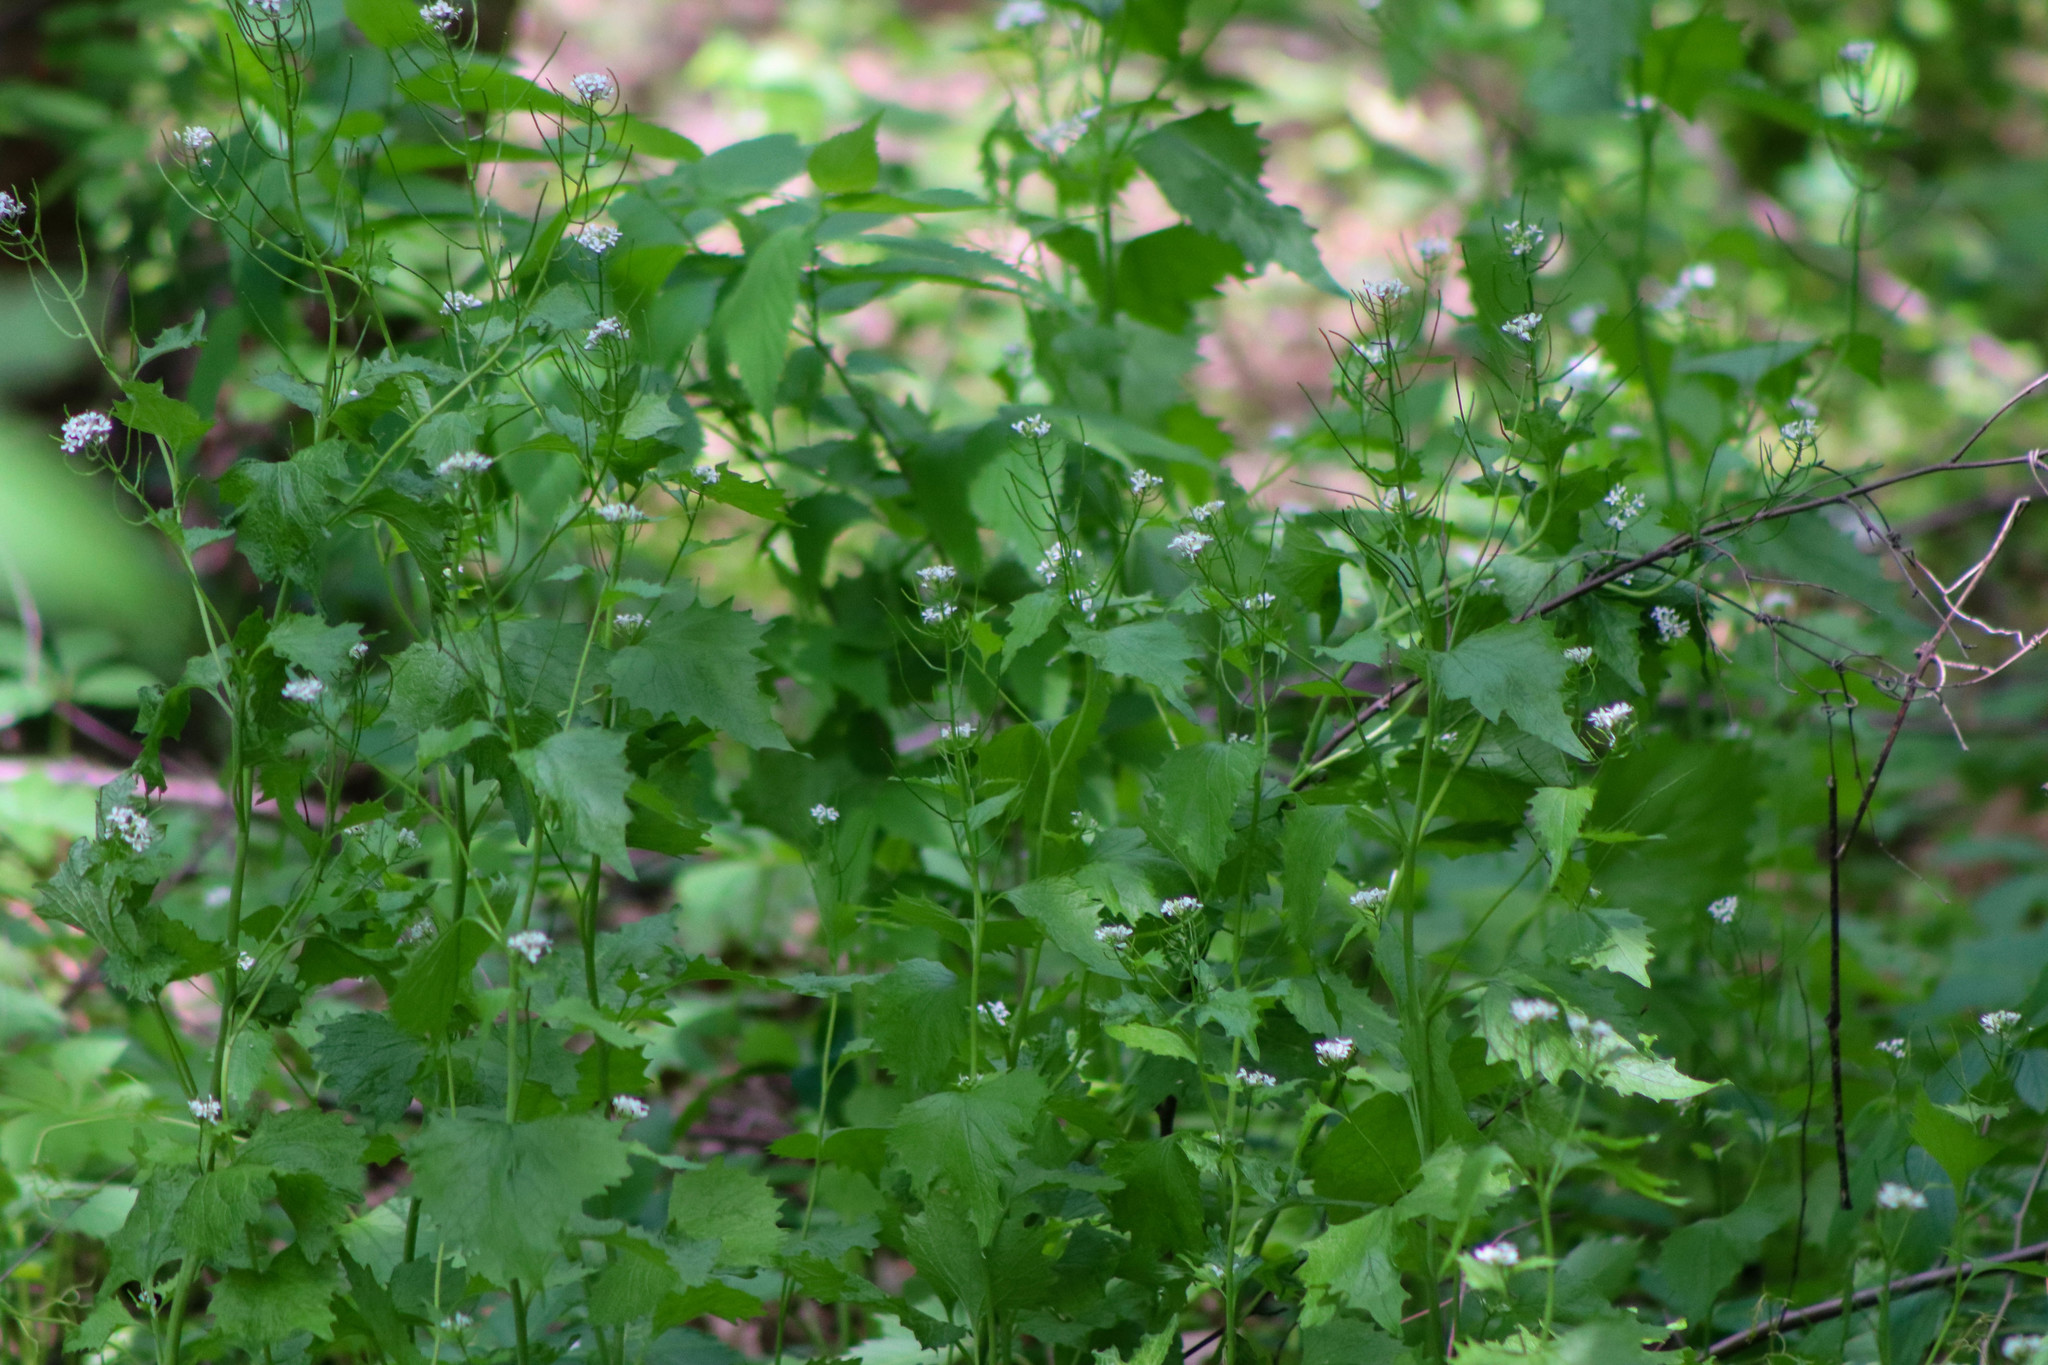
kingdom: Plantae
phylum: Tracheophyta
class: Magnoliopsida
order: Brassicales
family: Brassicaceae
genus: Alliaria
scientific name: Alliaria petiolata
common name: Garlic mustard
